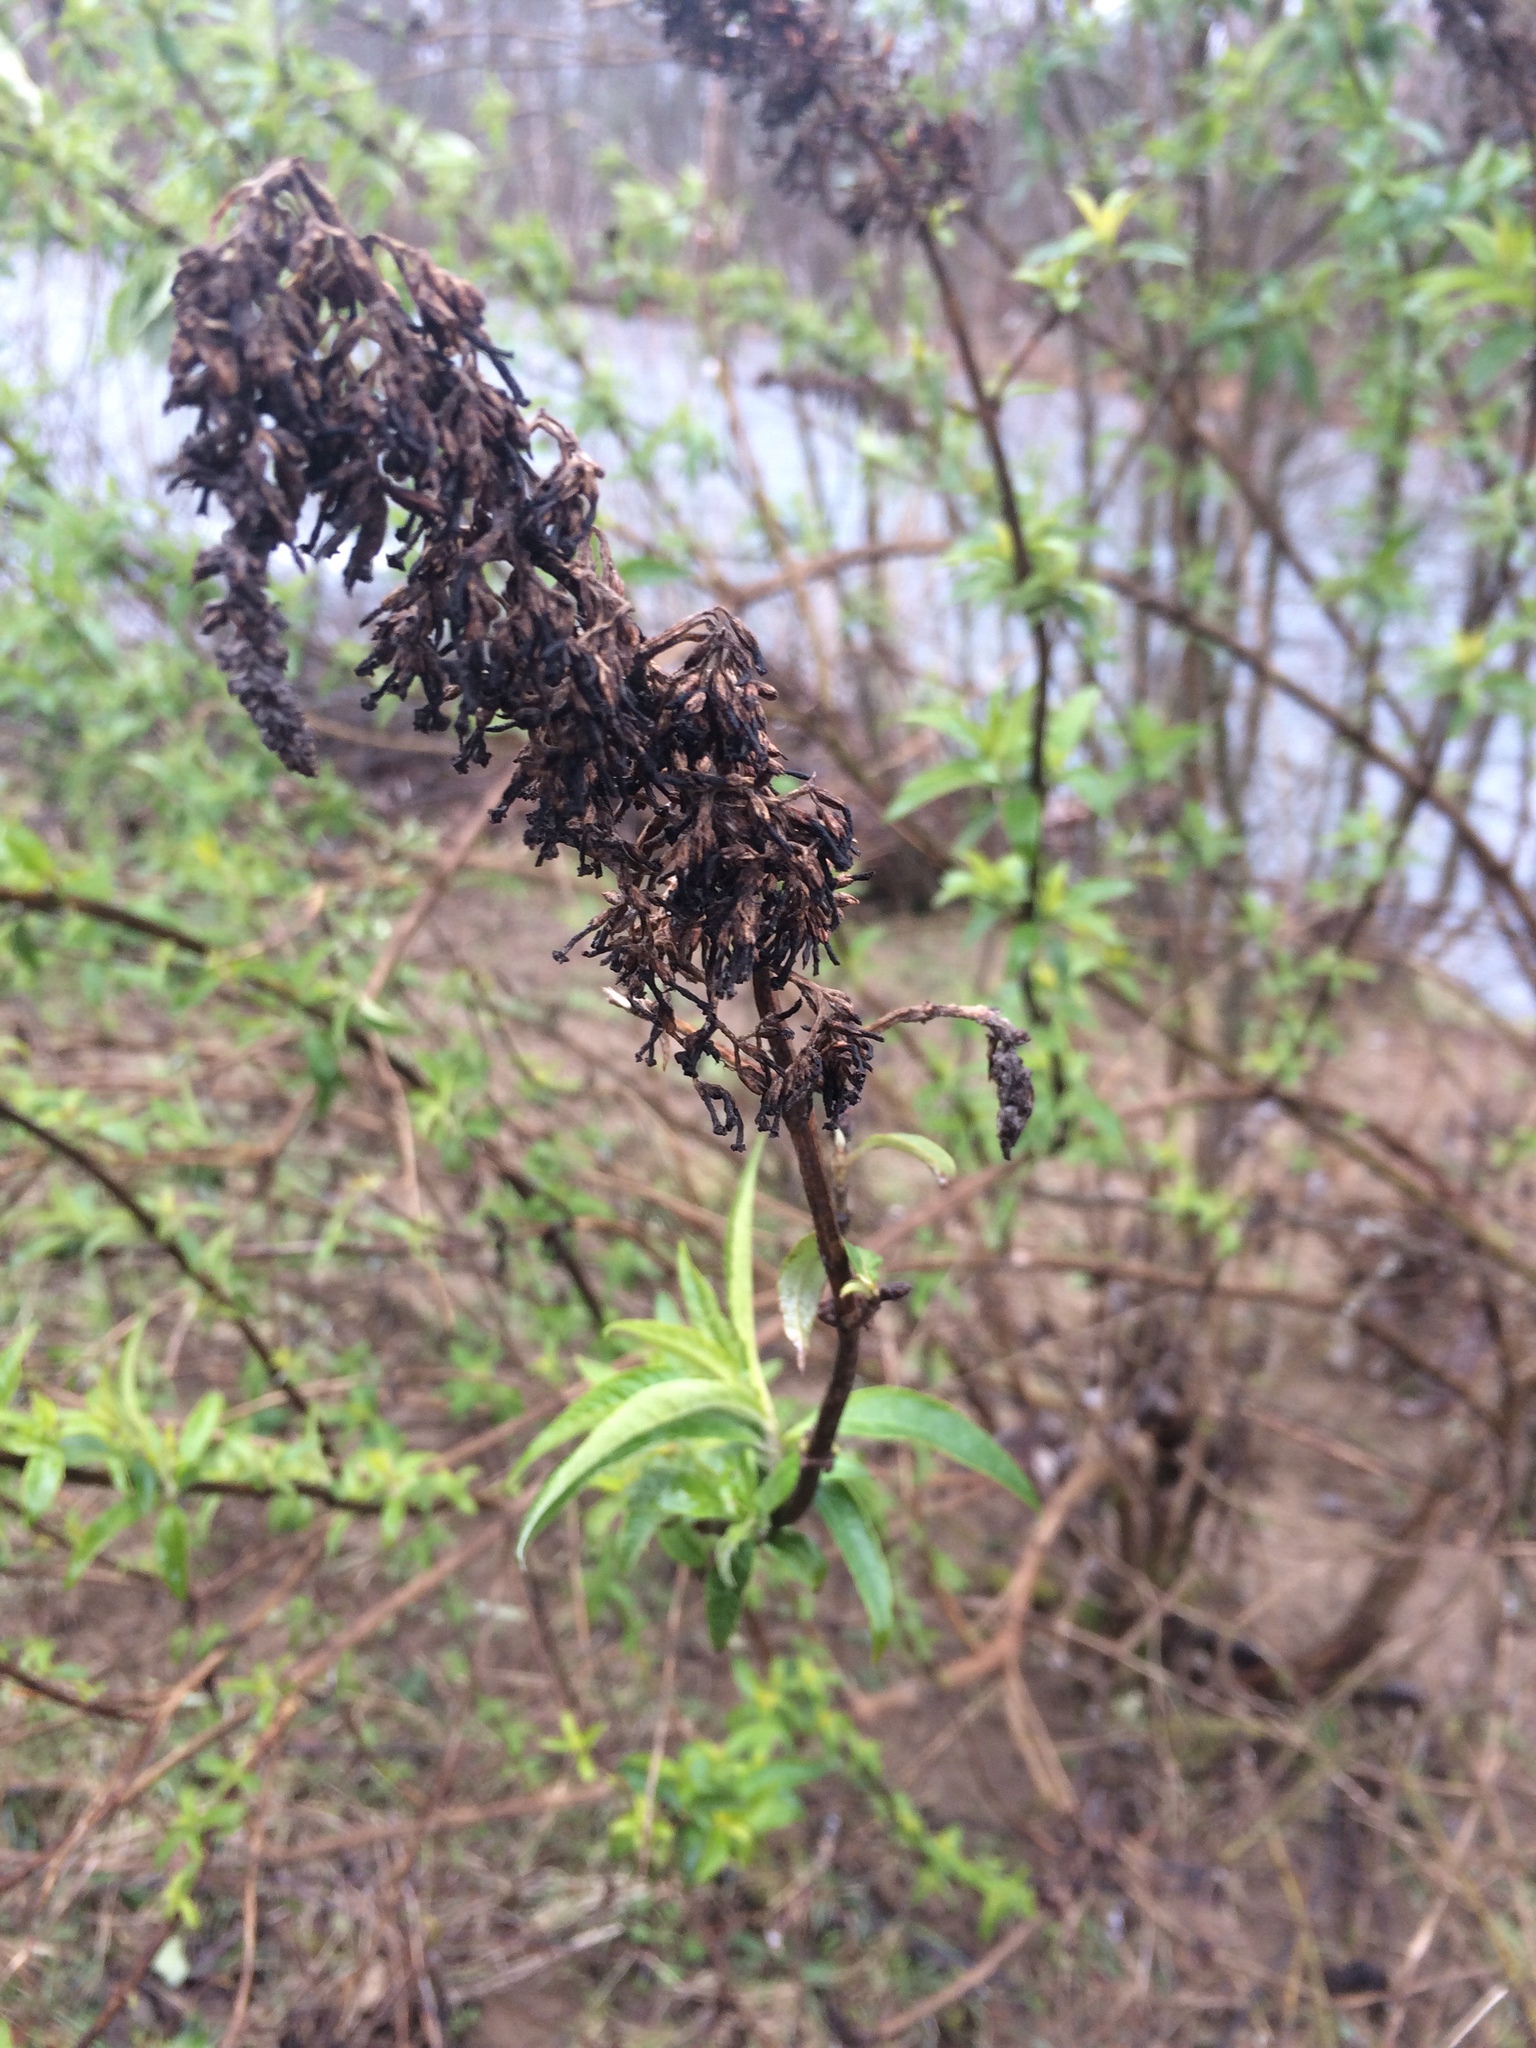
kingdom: Plantae
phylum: Tracheophyta
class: Magnoliopsida
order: Lamiales
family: Scrophulariaceae
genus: Buddleja
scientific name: Buddleja davidii
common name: Butterfly-bush
